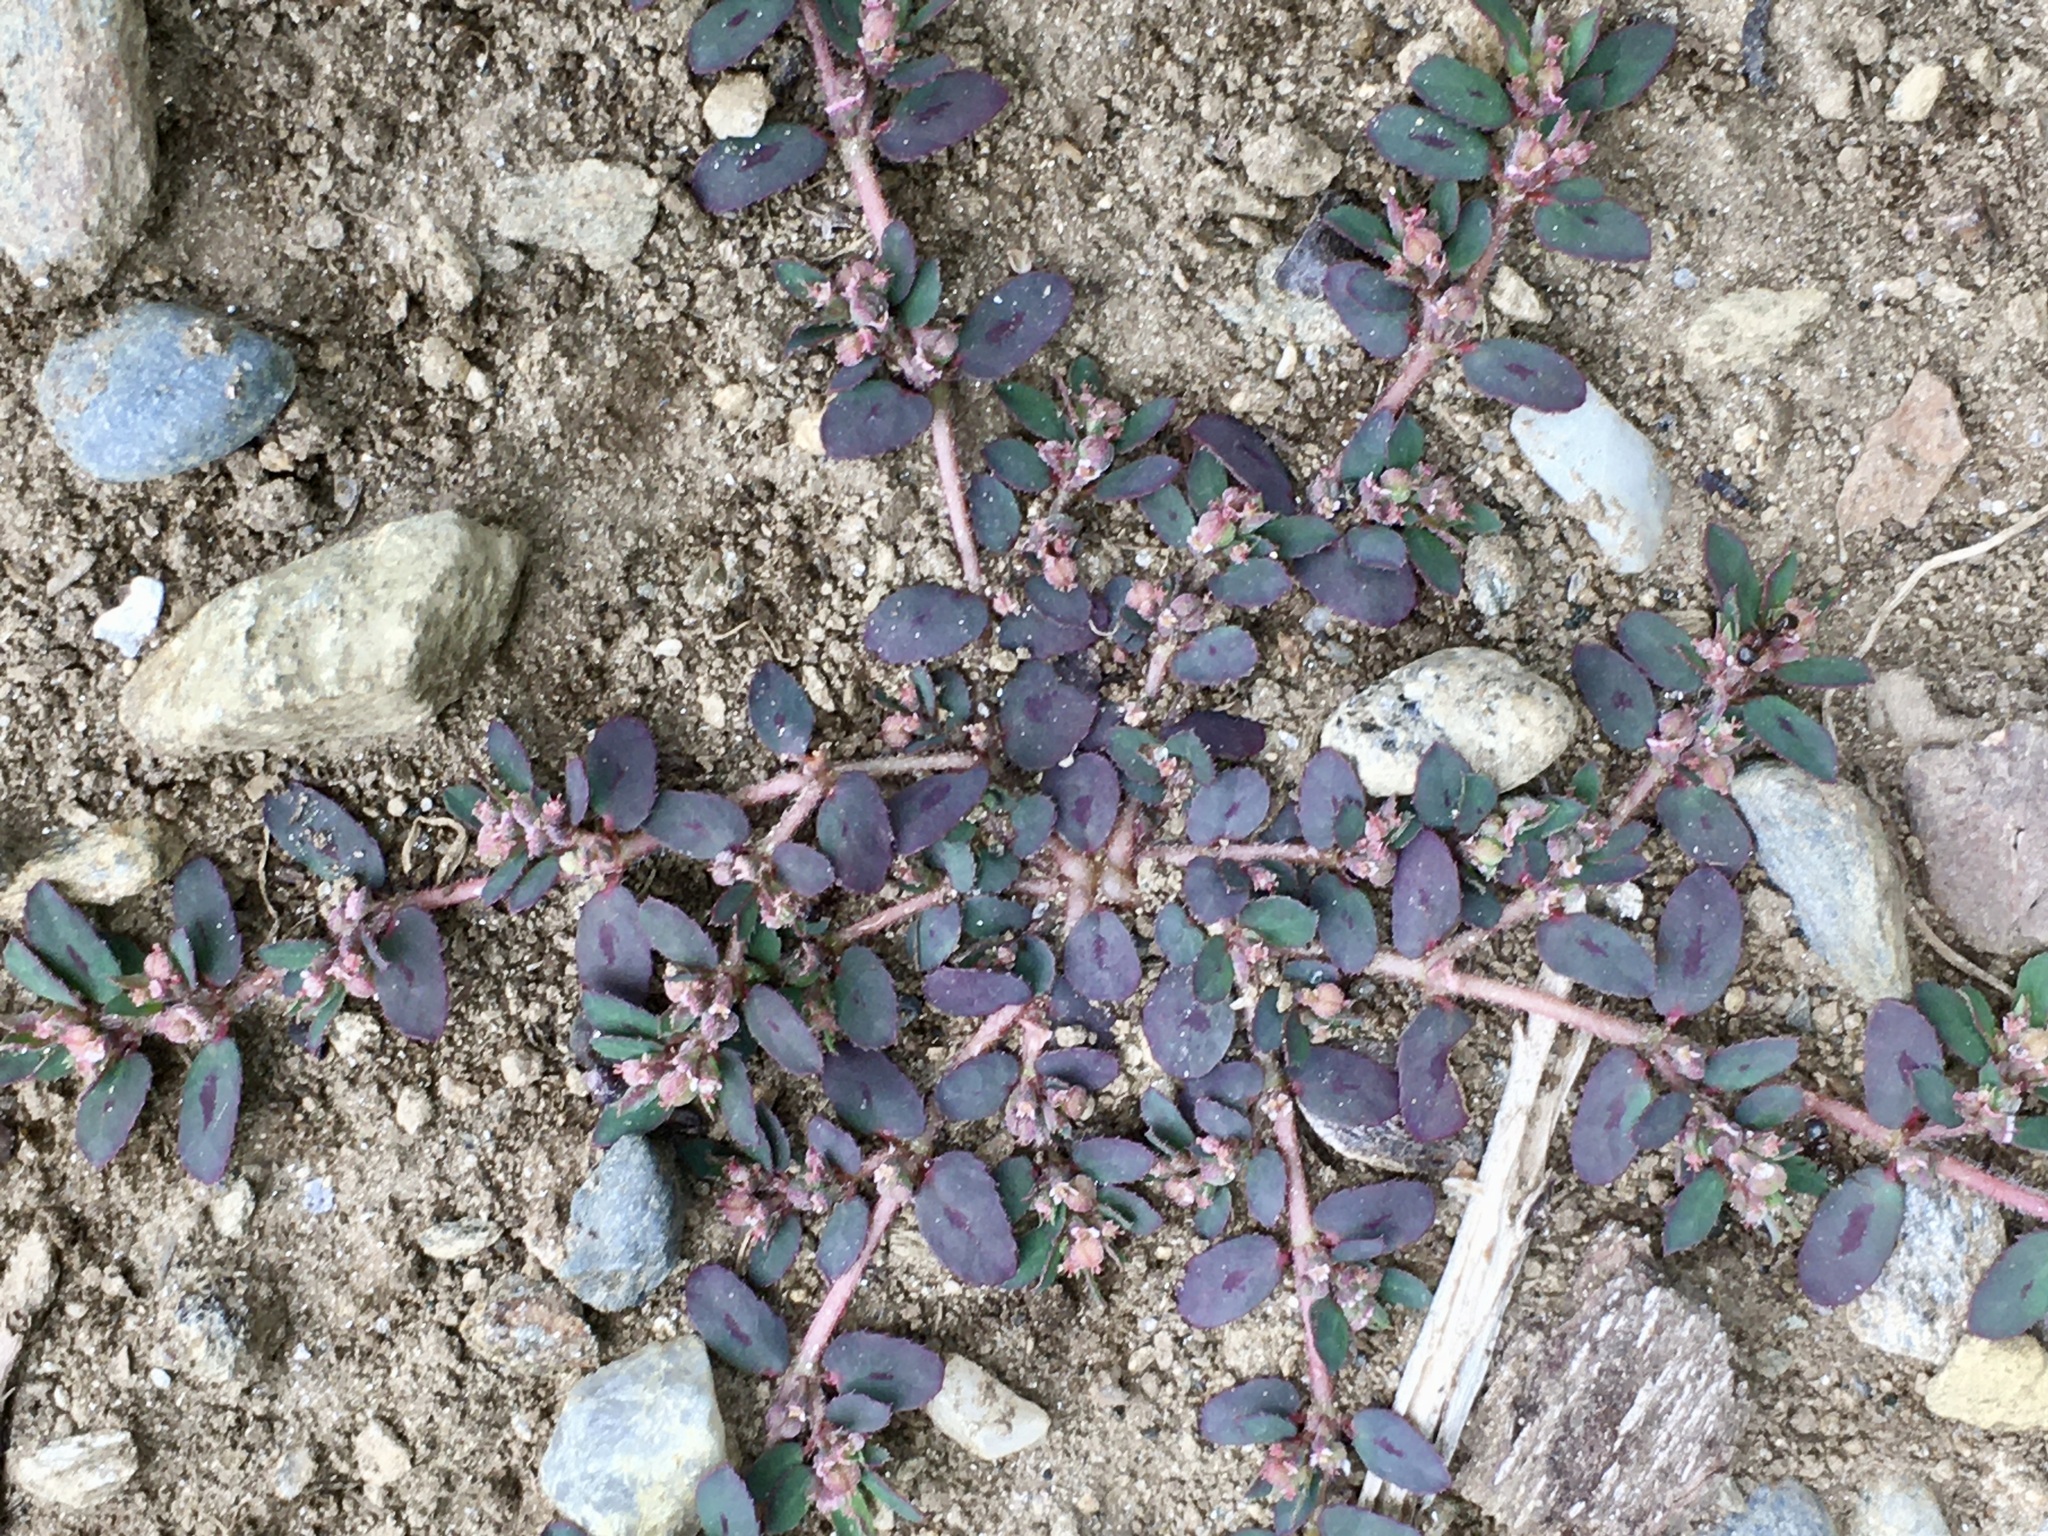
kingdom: Plantae
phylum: Tracheophyta
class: Magnoliopsida
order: Malpighiales
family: Euphorbiaceae
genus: Euphorbia
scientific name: Euphorbia maculata
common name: Spotted spurge
